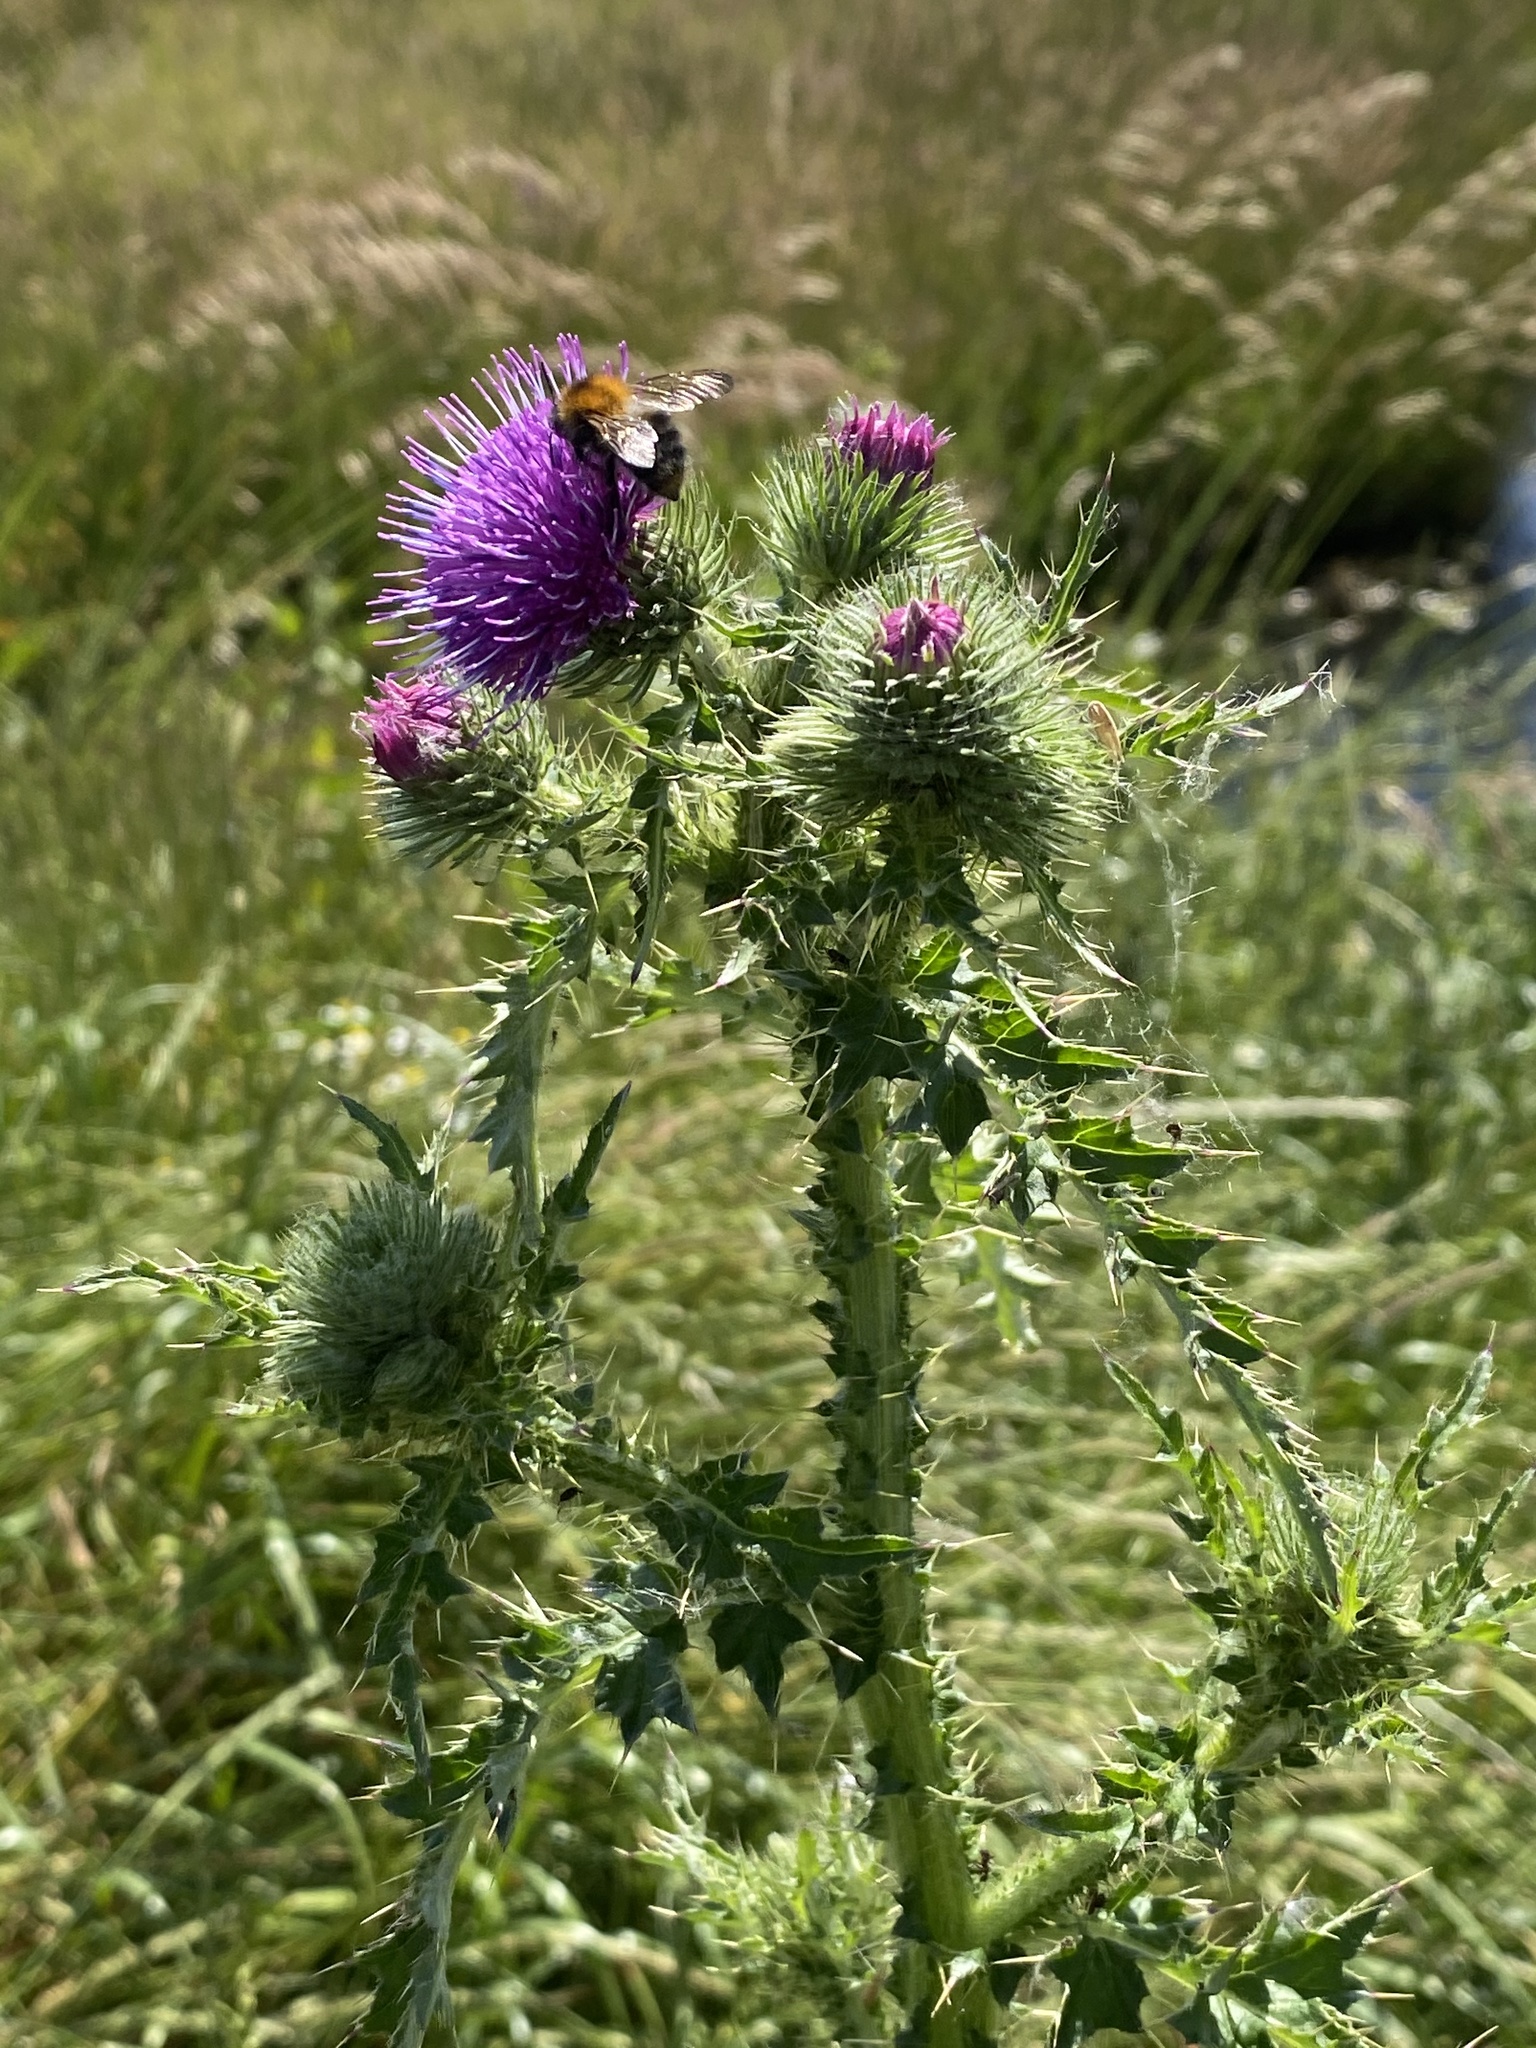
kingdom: Plantae
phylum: Tracheophyta
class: Magnoliopsida
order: Asterales
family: Asteraceae
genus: Carduus
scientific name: Carduus crispus
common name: Welted thistle
